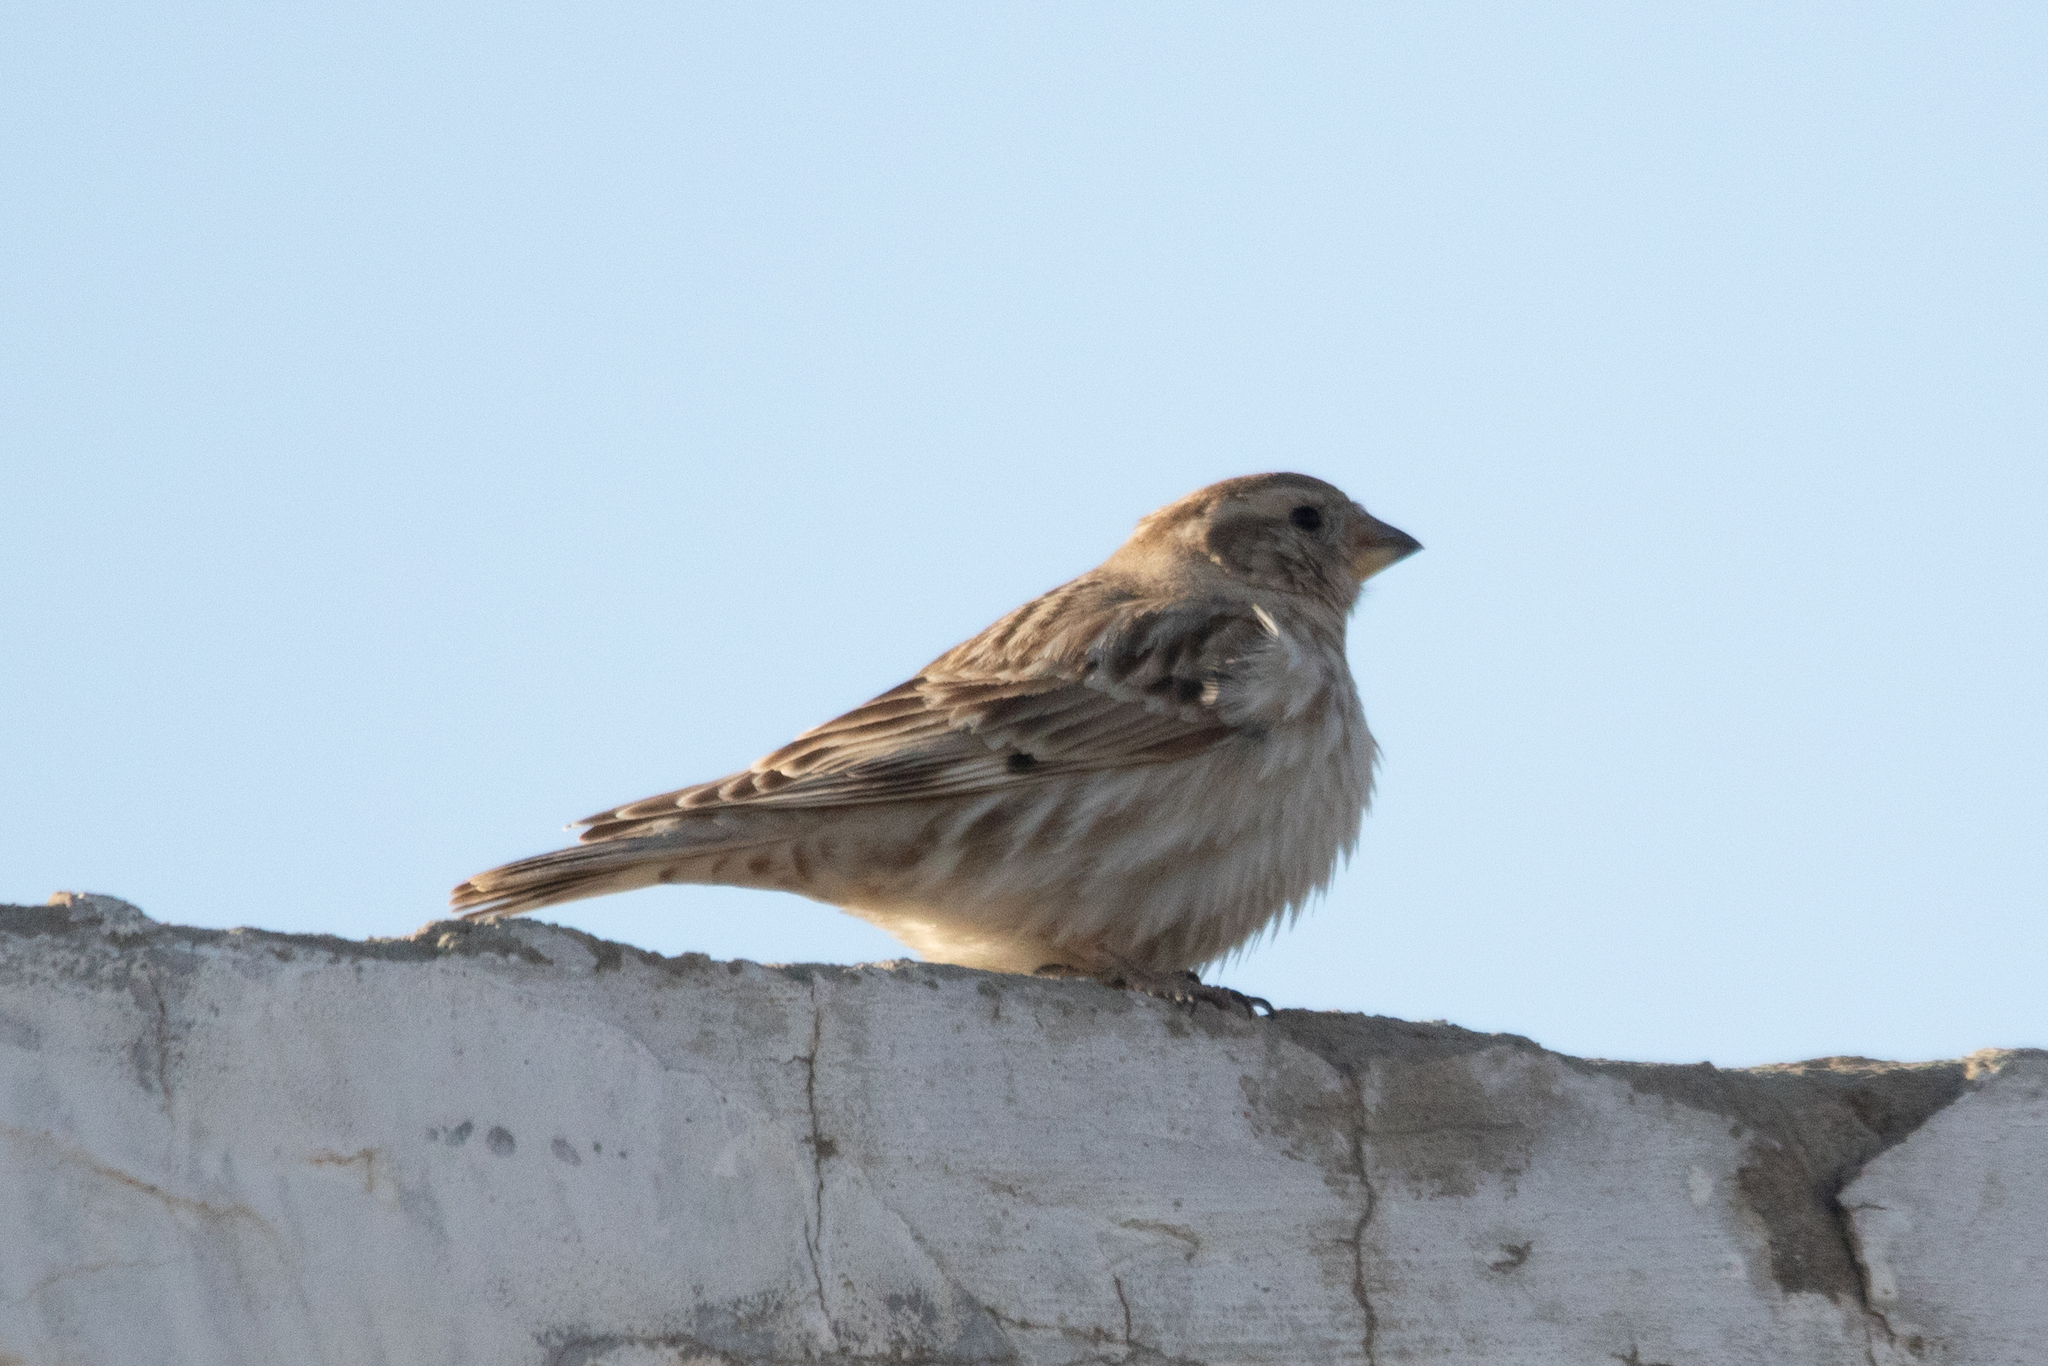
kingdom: Animalia
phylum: Chordata
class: Aves
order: Passeriformes
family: Passeridae
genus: Petronia
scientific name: Petronia petronia
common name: Rock sparrow
